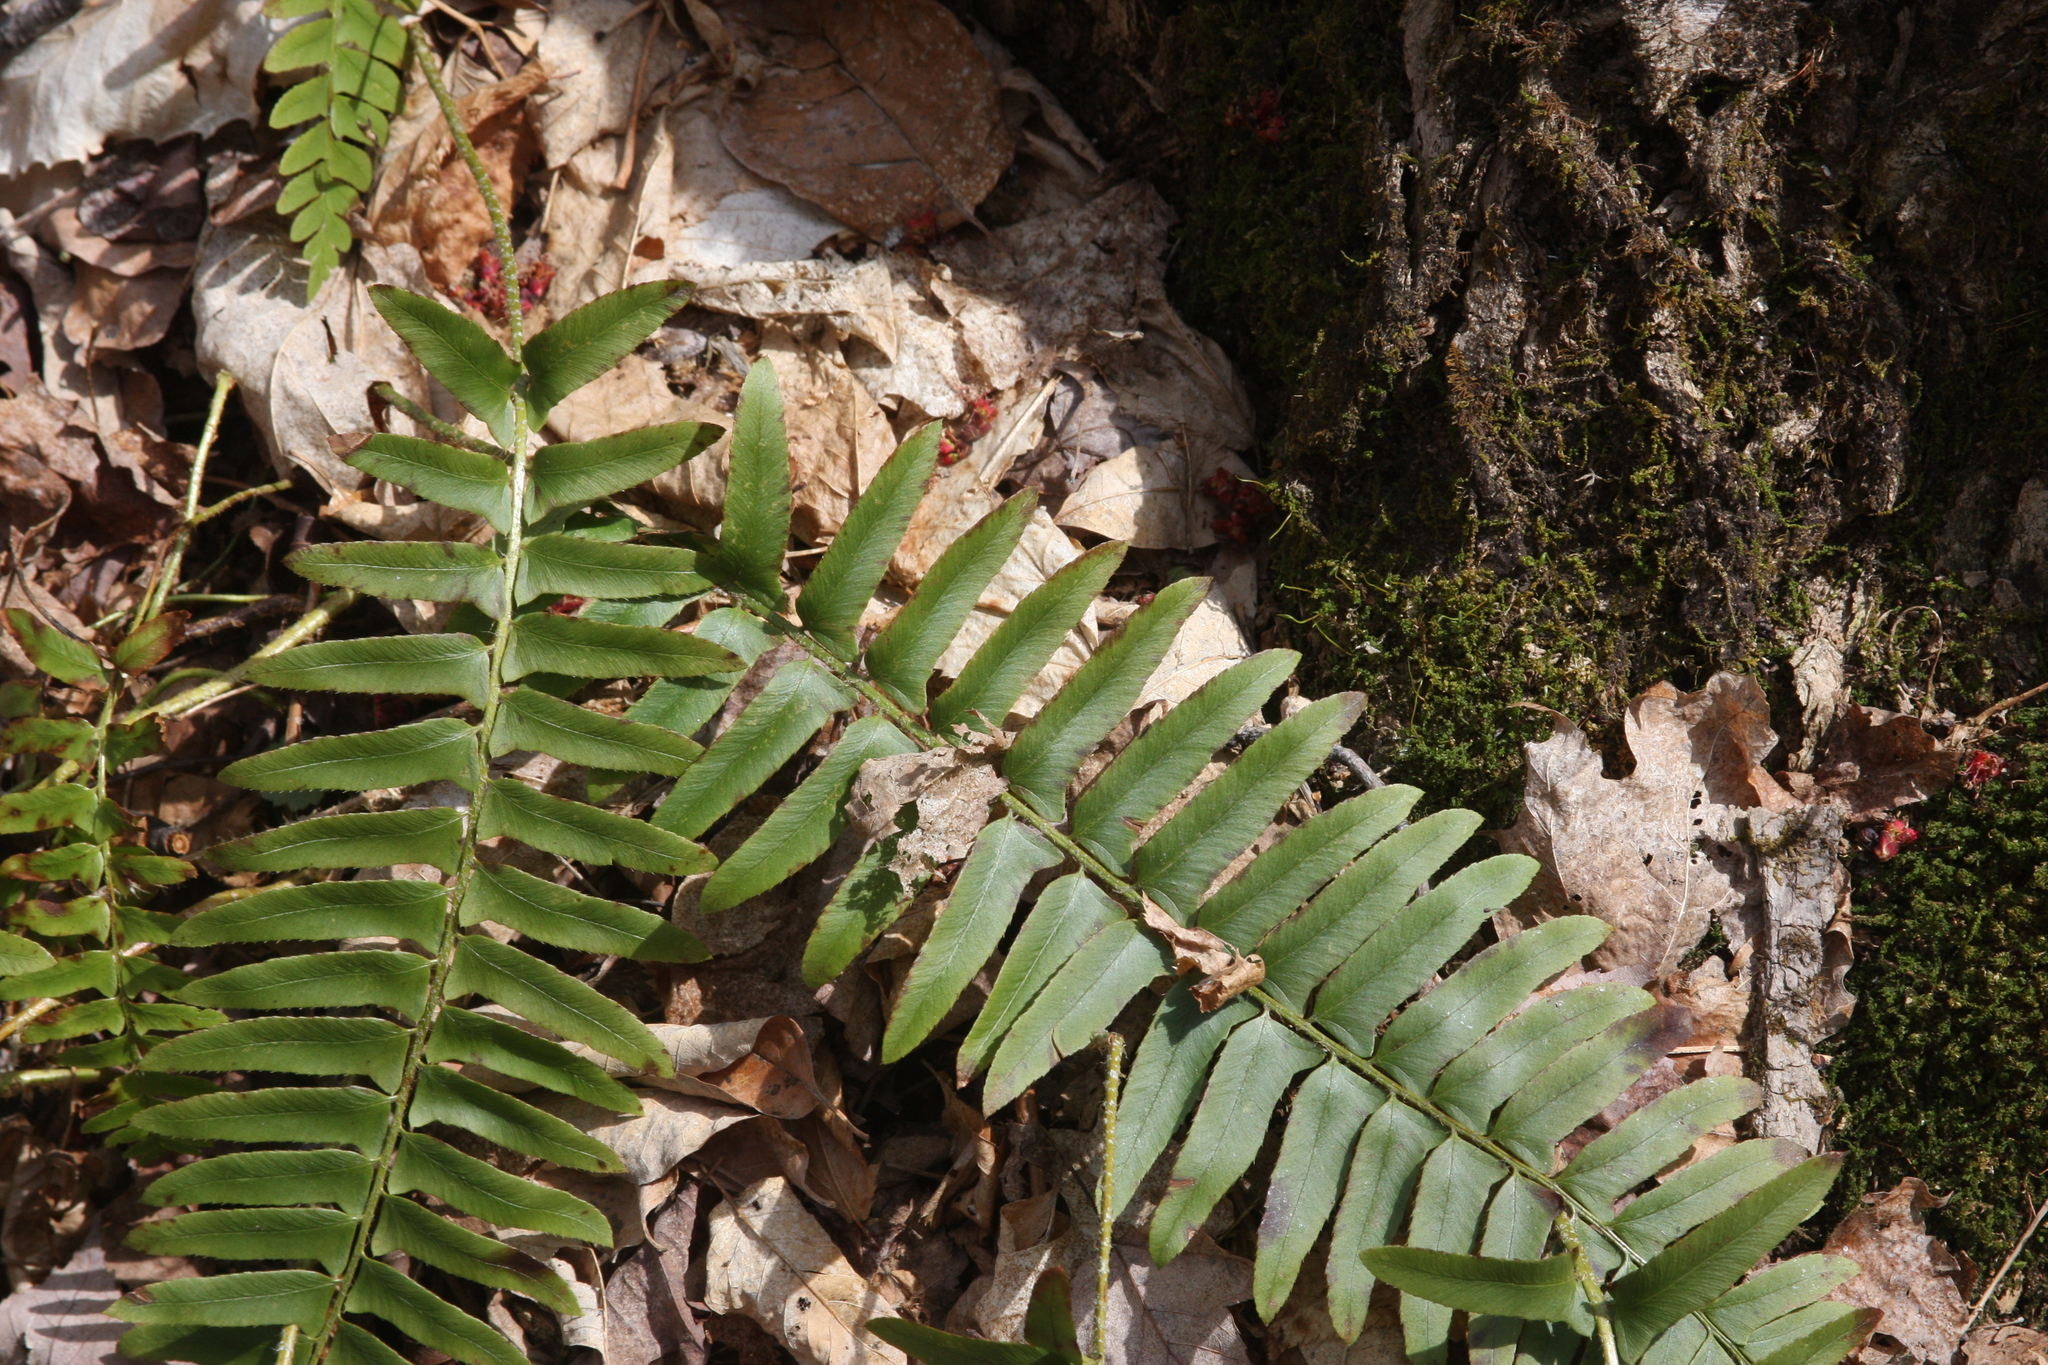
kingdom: Plantae
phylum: Tracheophyta
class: Polypodiopsida
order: Polypodiales
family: Dryopteridaceae
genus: Polystichum
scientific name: Polystichum acrostichoides
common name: Christmas fern
